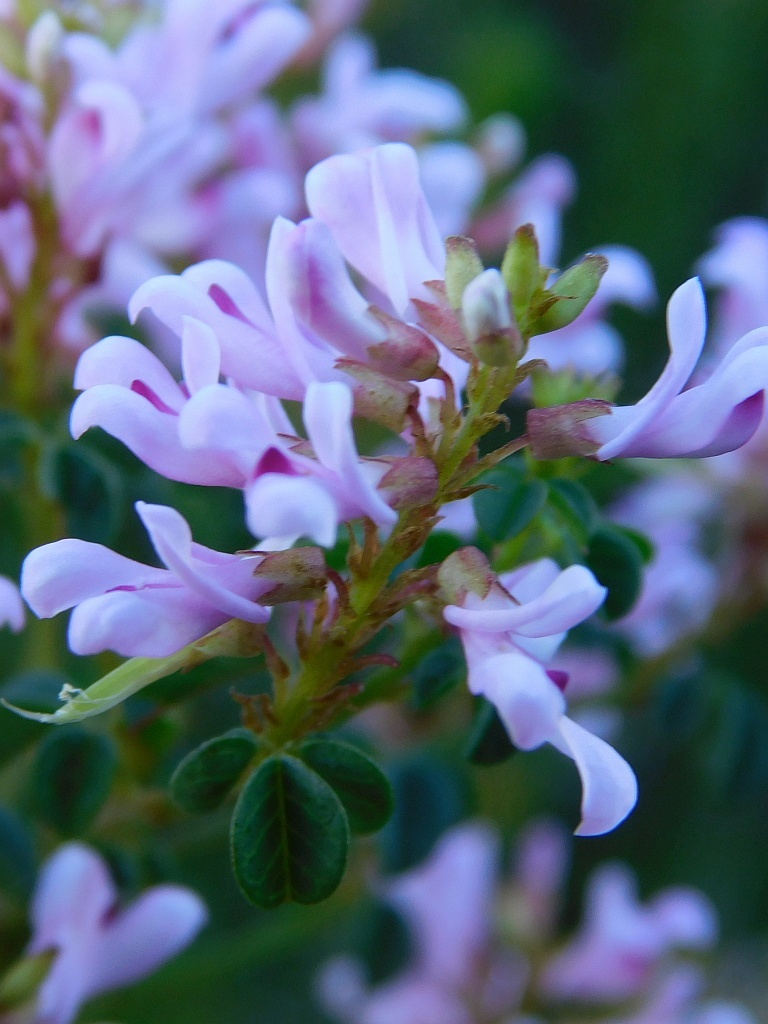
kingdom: Plantae
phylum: Tracheophyta
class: Magnoliopsida
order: Fabales
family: Fabaceae
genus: Hypocalyptus
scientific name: Hypocalyptus oxalidifolius
